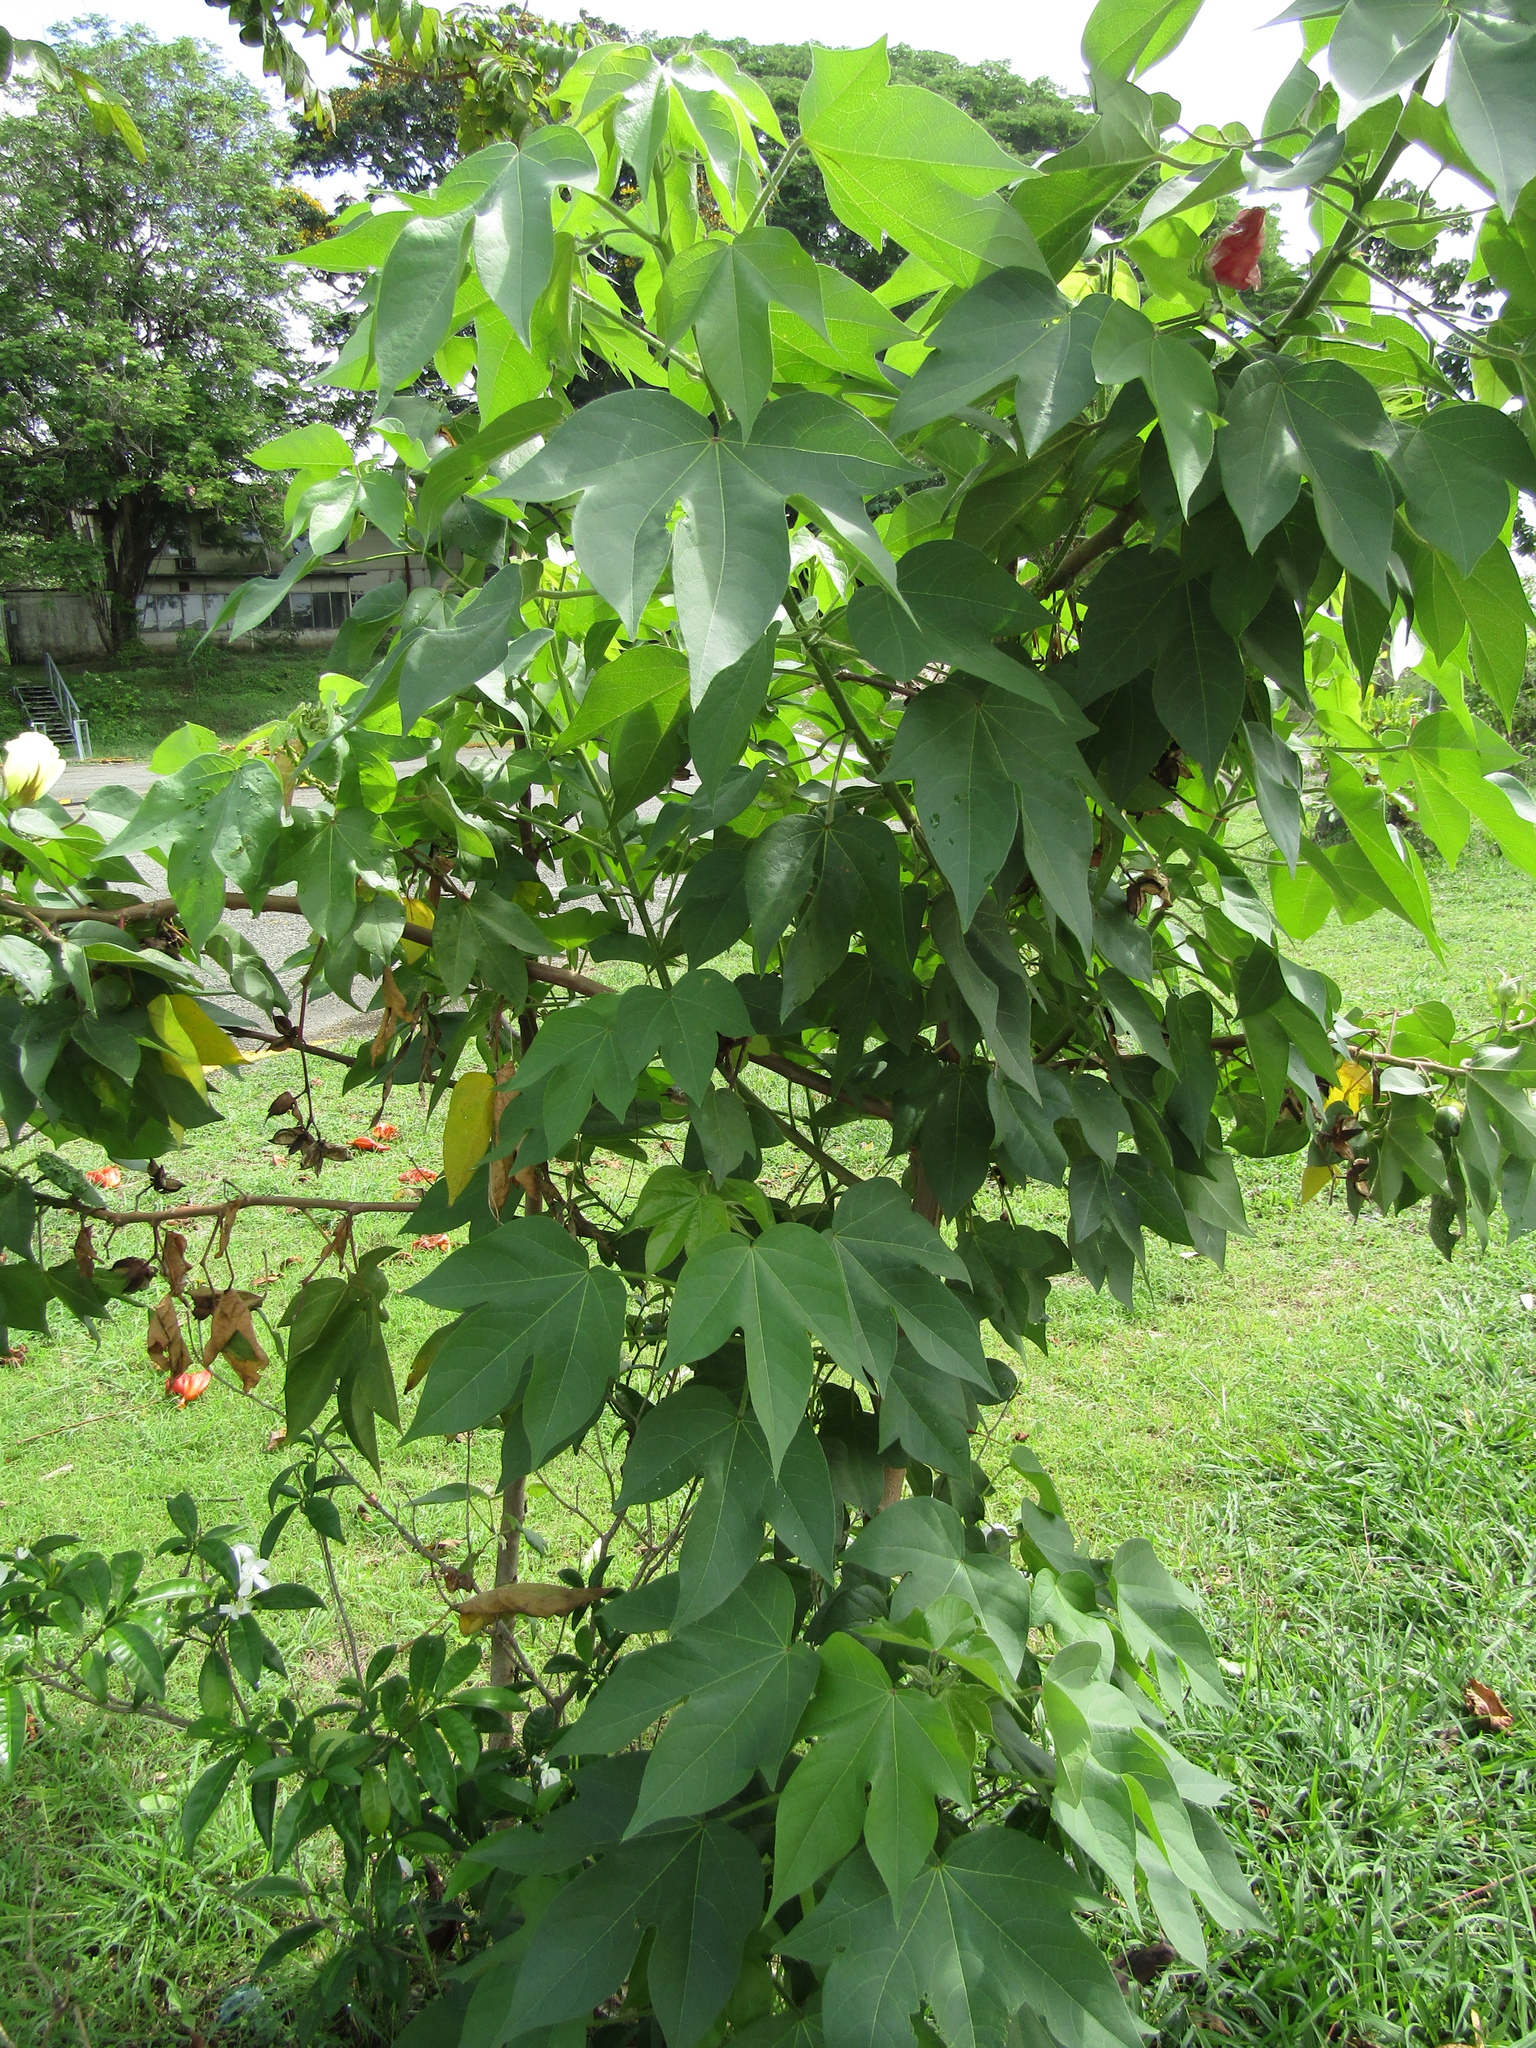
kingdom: Plantae
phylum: Tracheophyta
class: Magnoliopsida
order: Malvales
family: Malvaceae
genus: Gossypium
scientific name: Gossypium hirsutum
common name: Cotton
